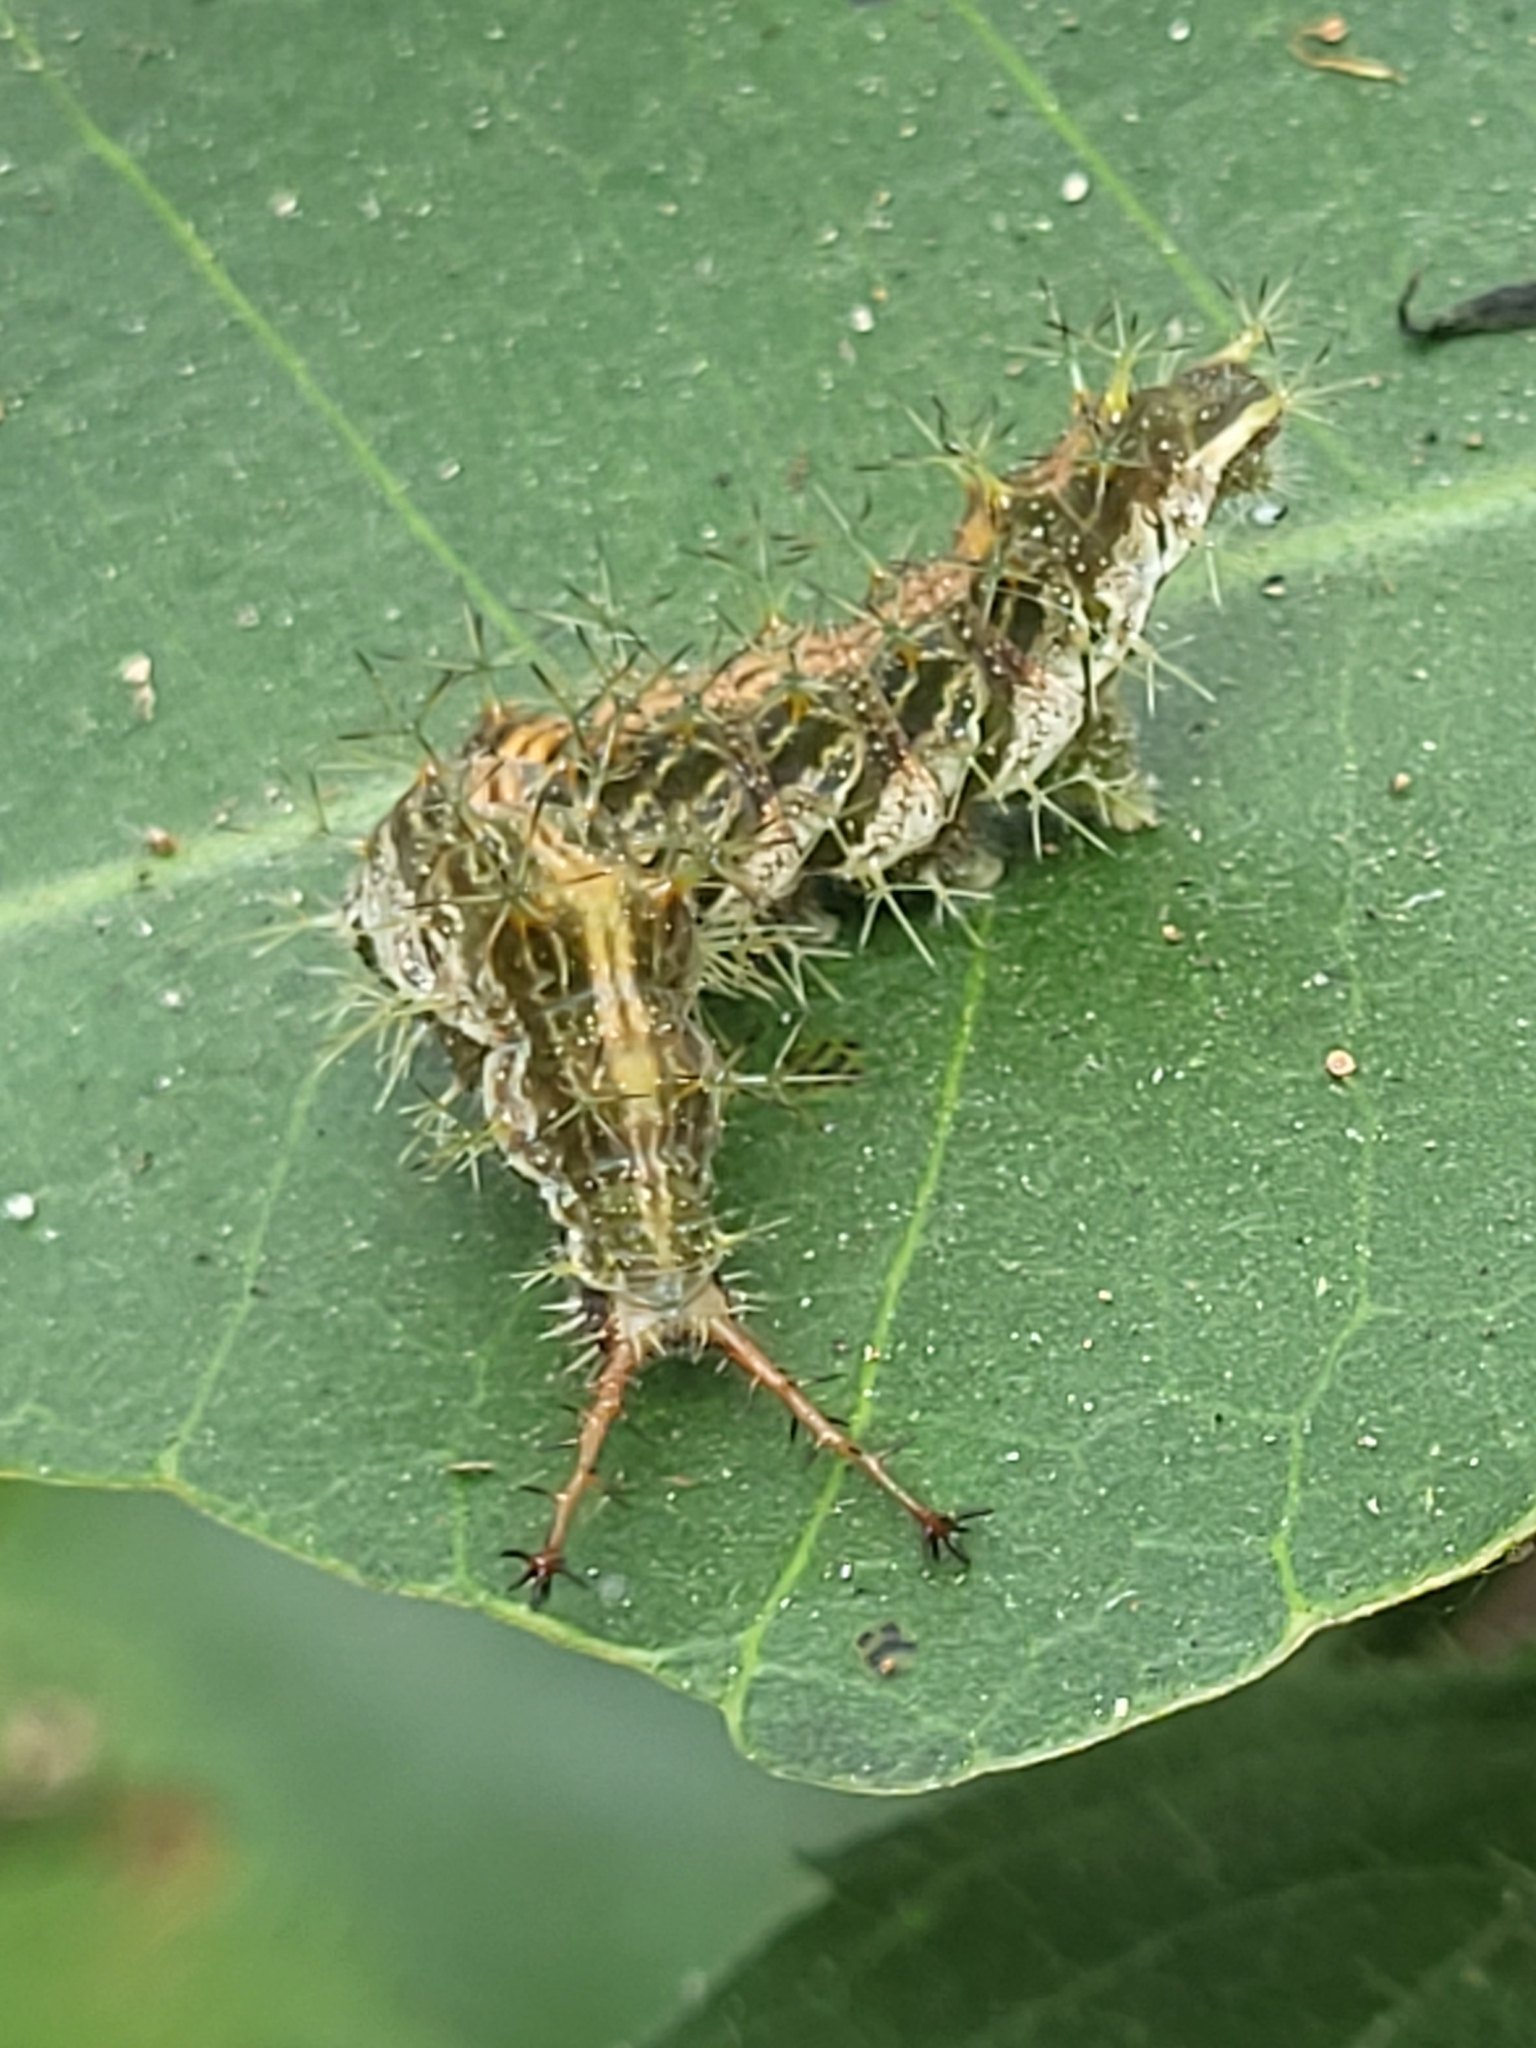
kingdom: Animalia
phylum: Arthropoda
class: Insecta
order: Lepidoptera
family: Nymphalidae
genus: Ariadne
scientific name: Ariadne merione
